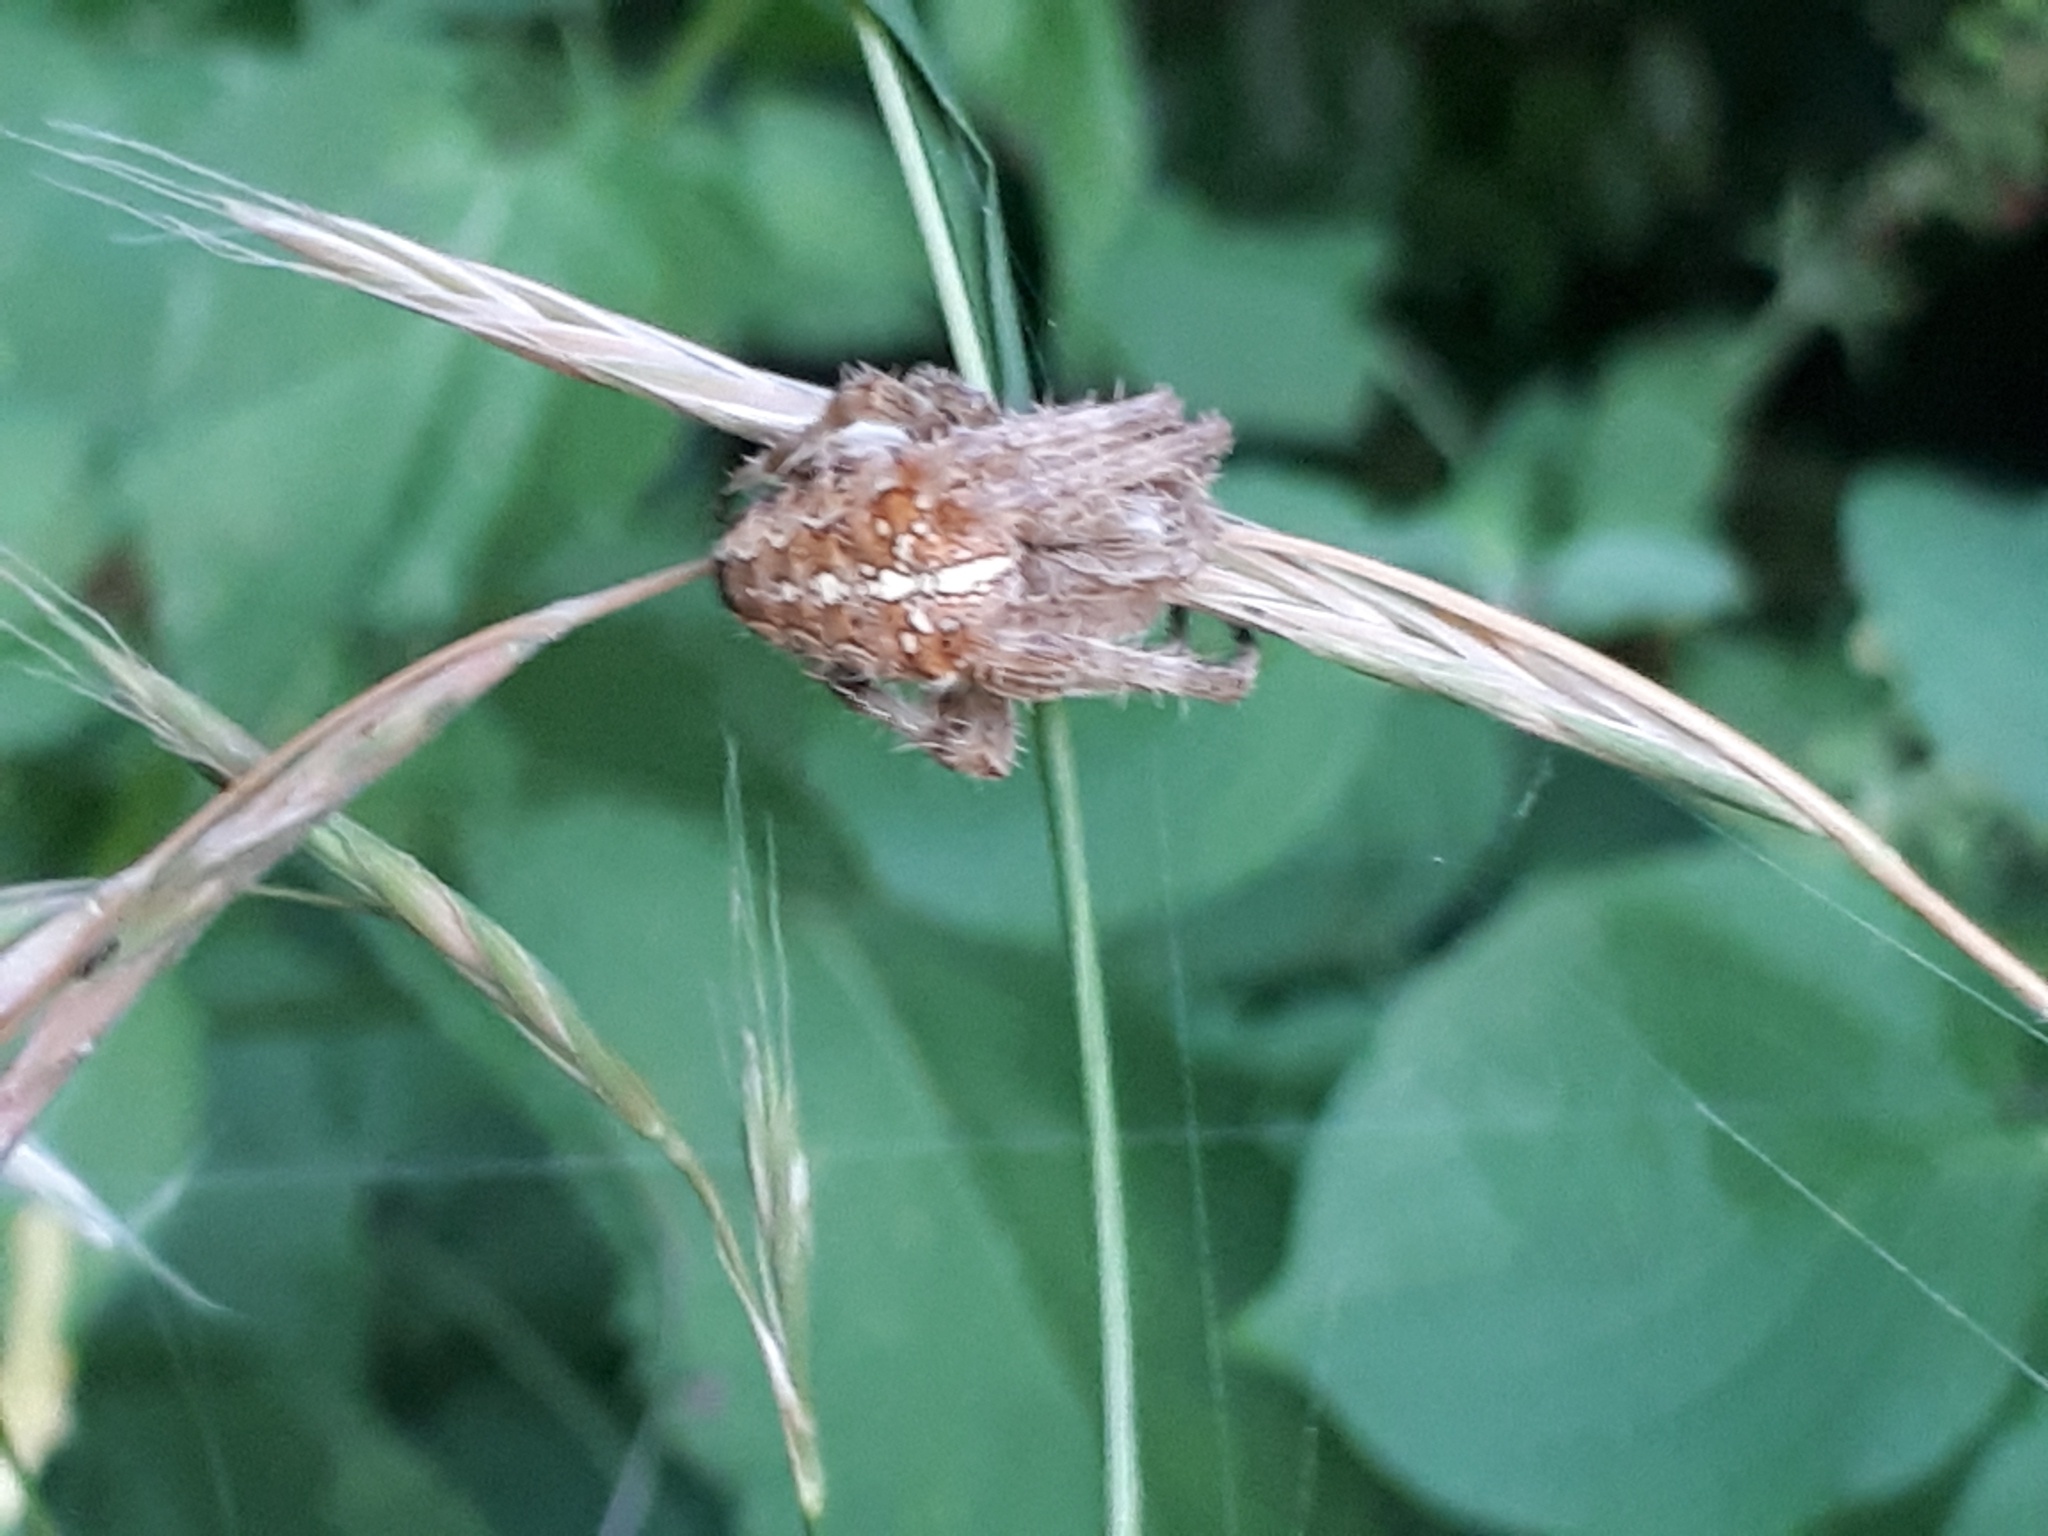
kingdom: Animalia
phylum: Arthropoda
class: Arachnida
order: Araneae
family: Araneidae
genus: Araneus
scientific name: Araneus diadematus
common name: Cross orbweaver
